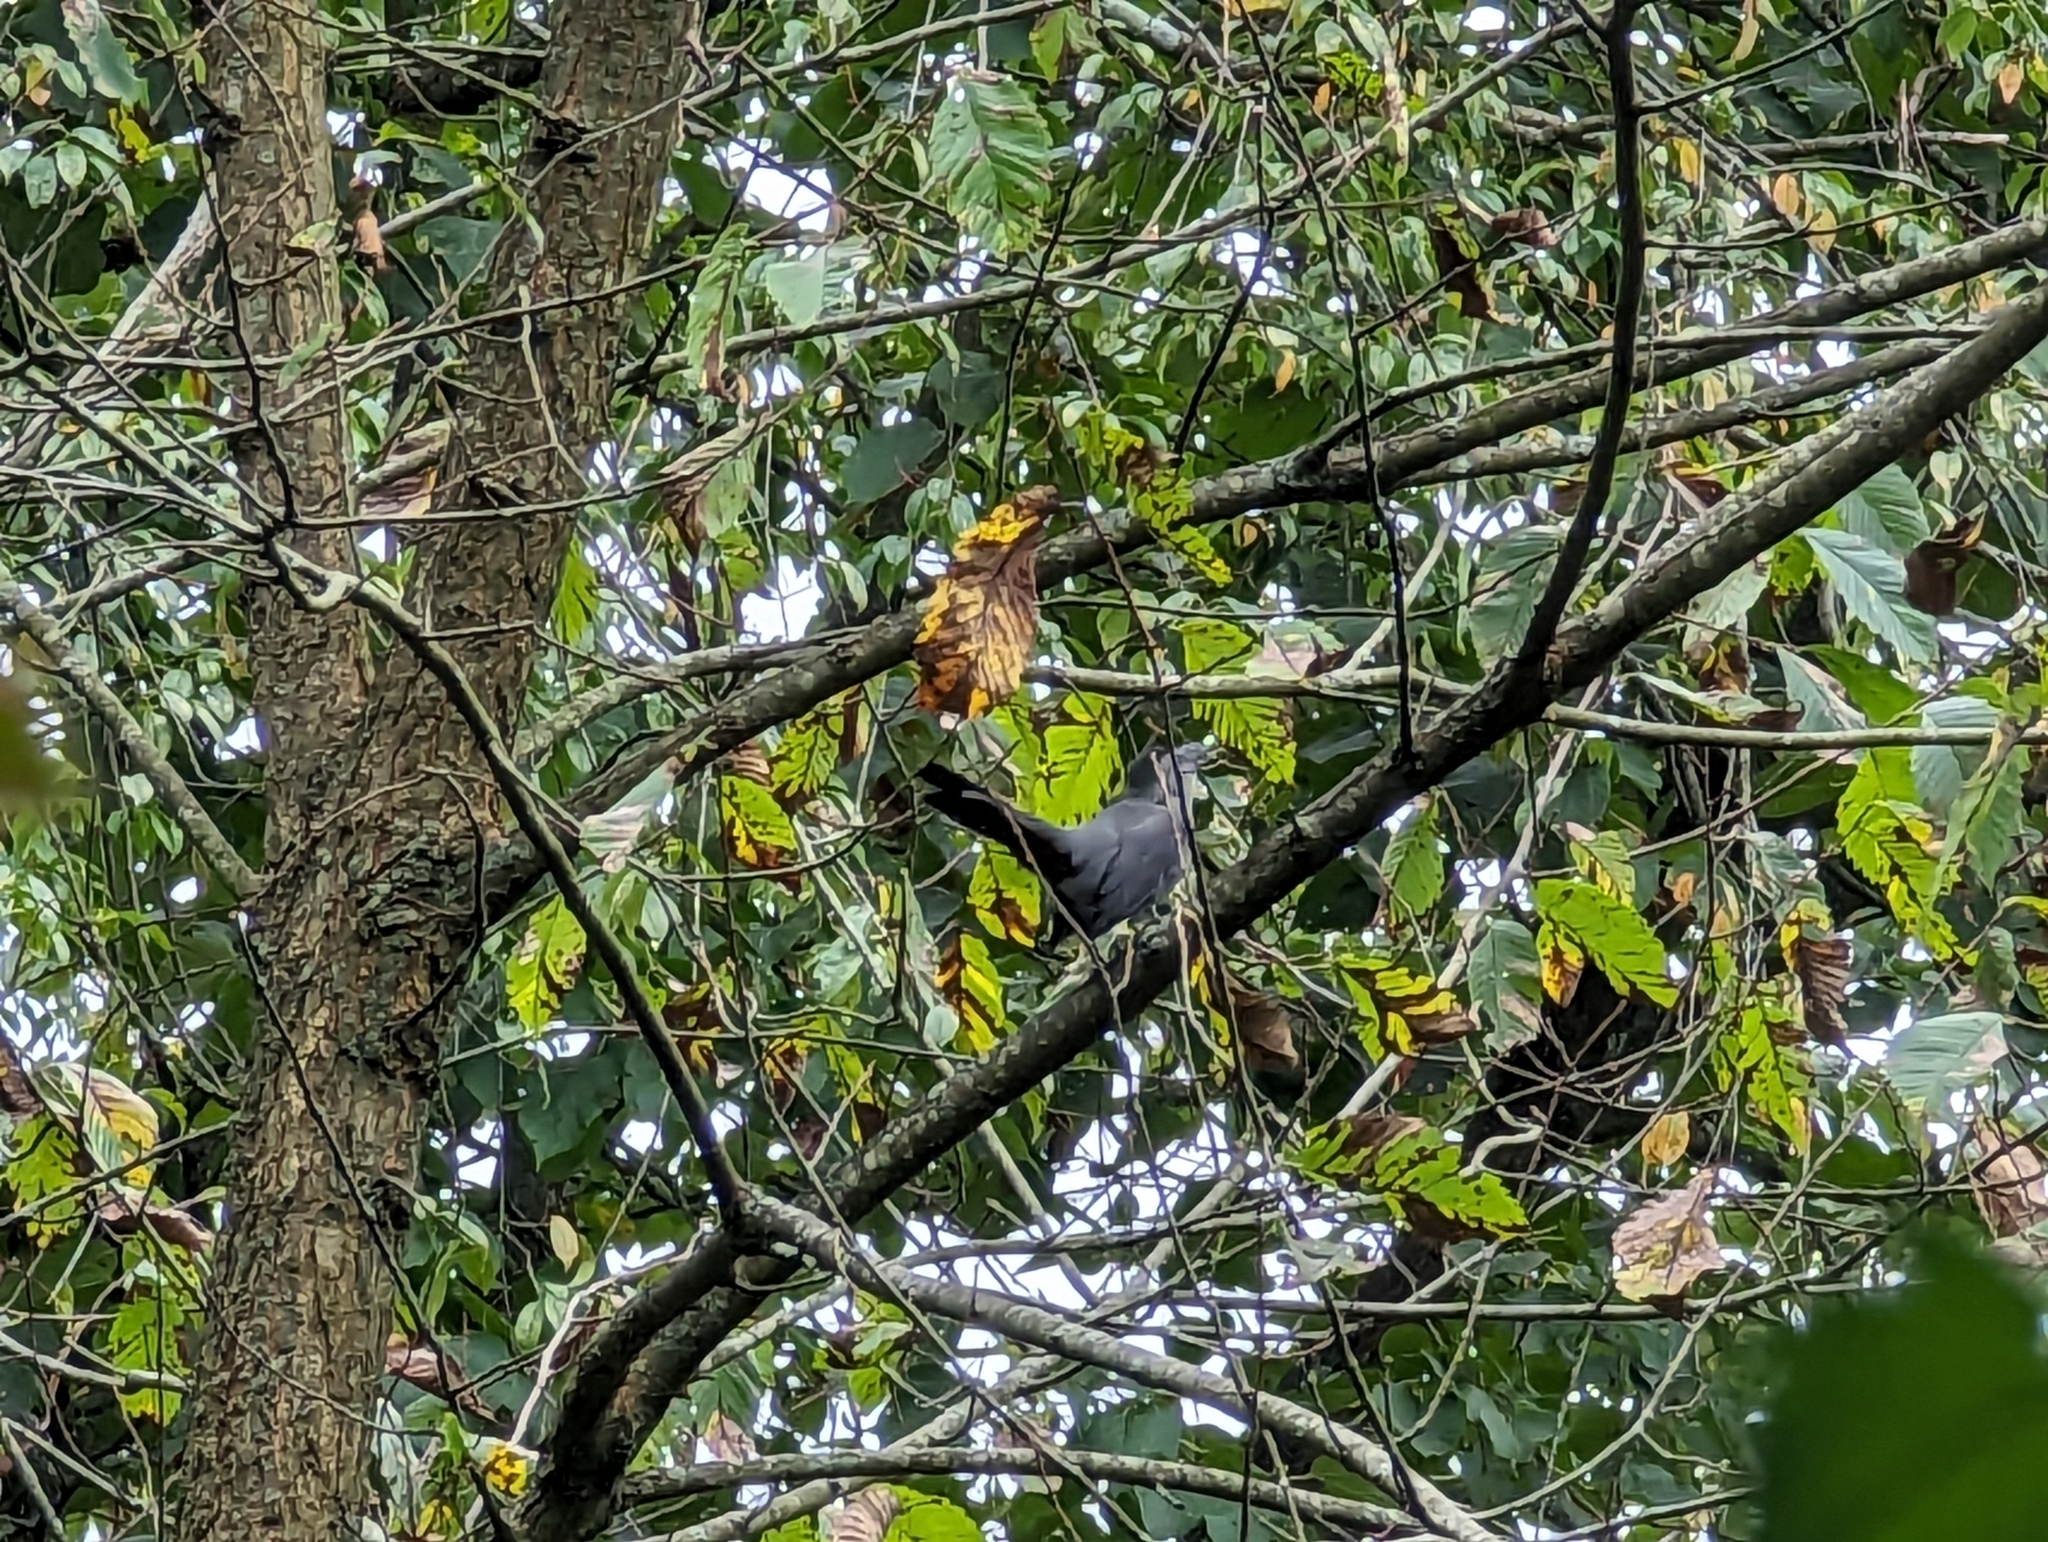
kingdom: Animalia
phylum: Chordata
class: Aves
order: Passeriformes
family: Mimidae
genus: Dumetella
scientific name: Dumetella carolinensis
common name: Gray catbird
